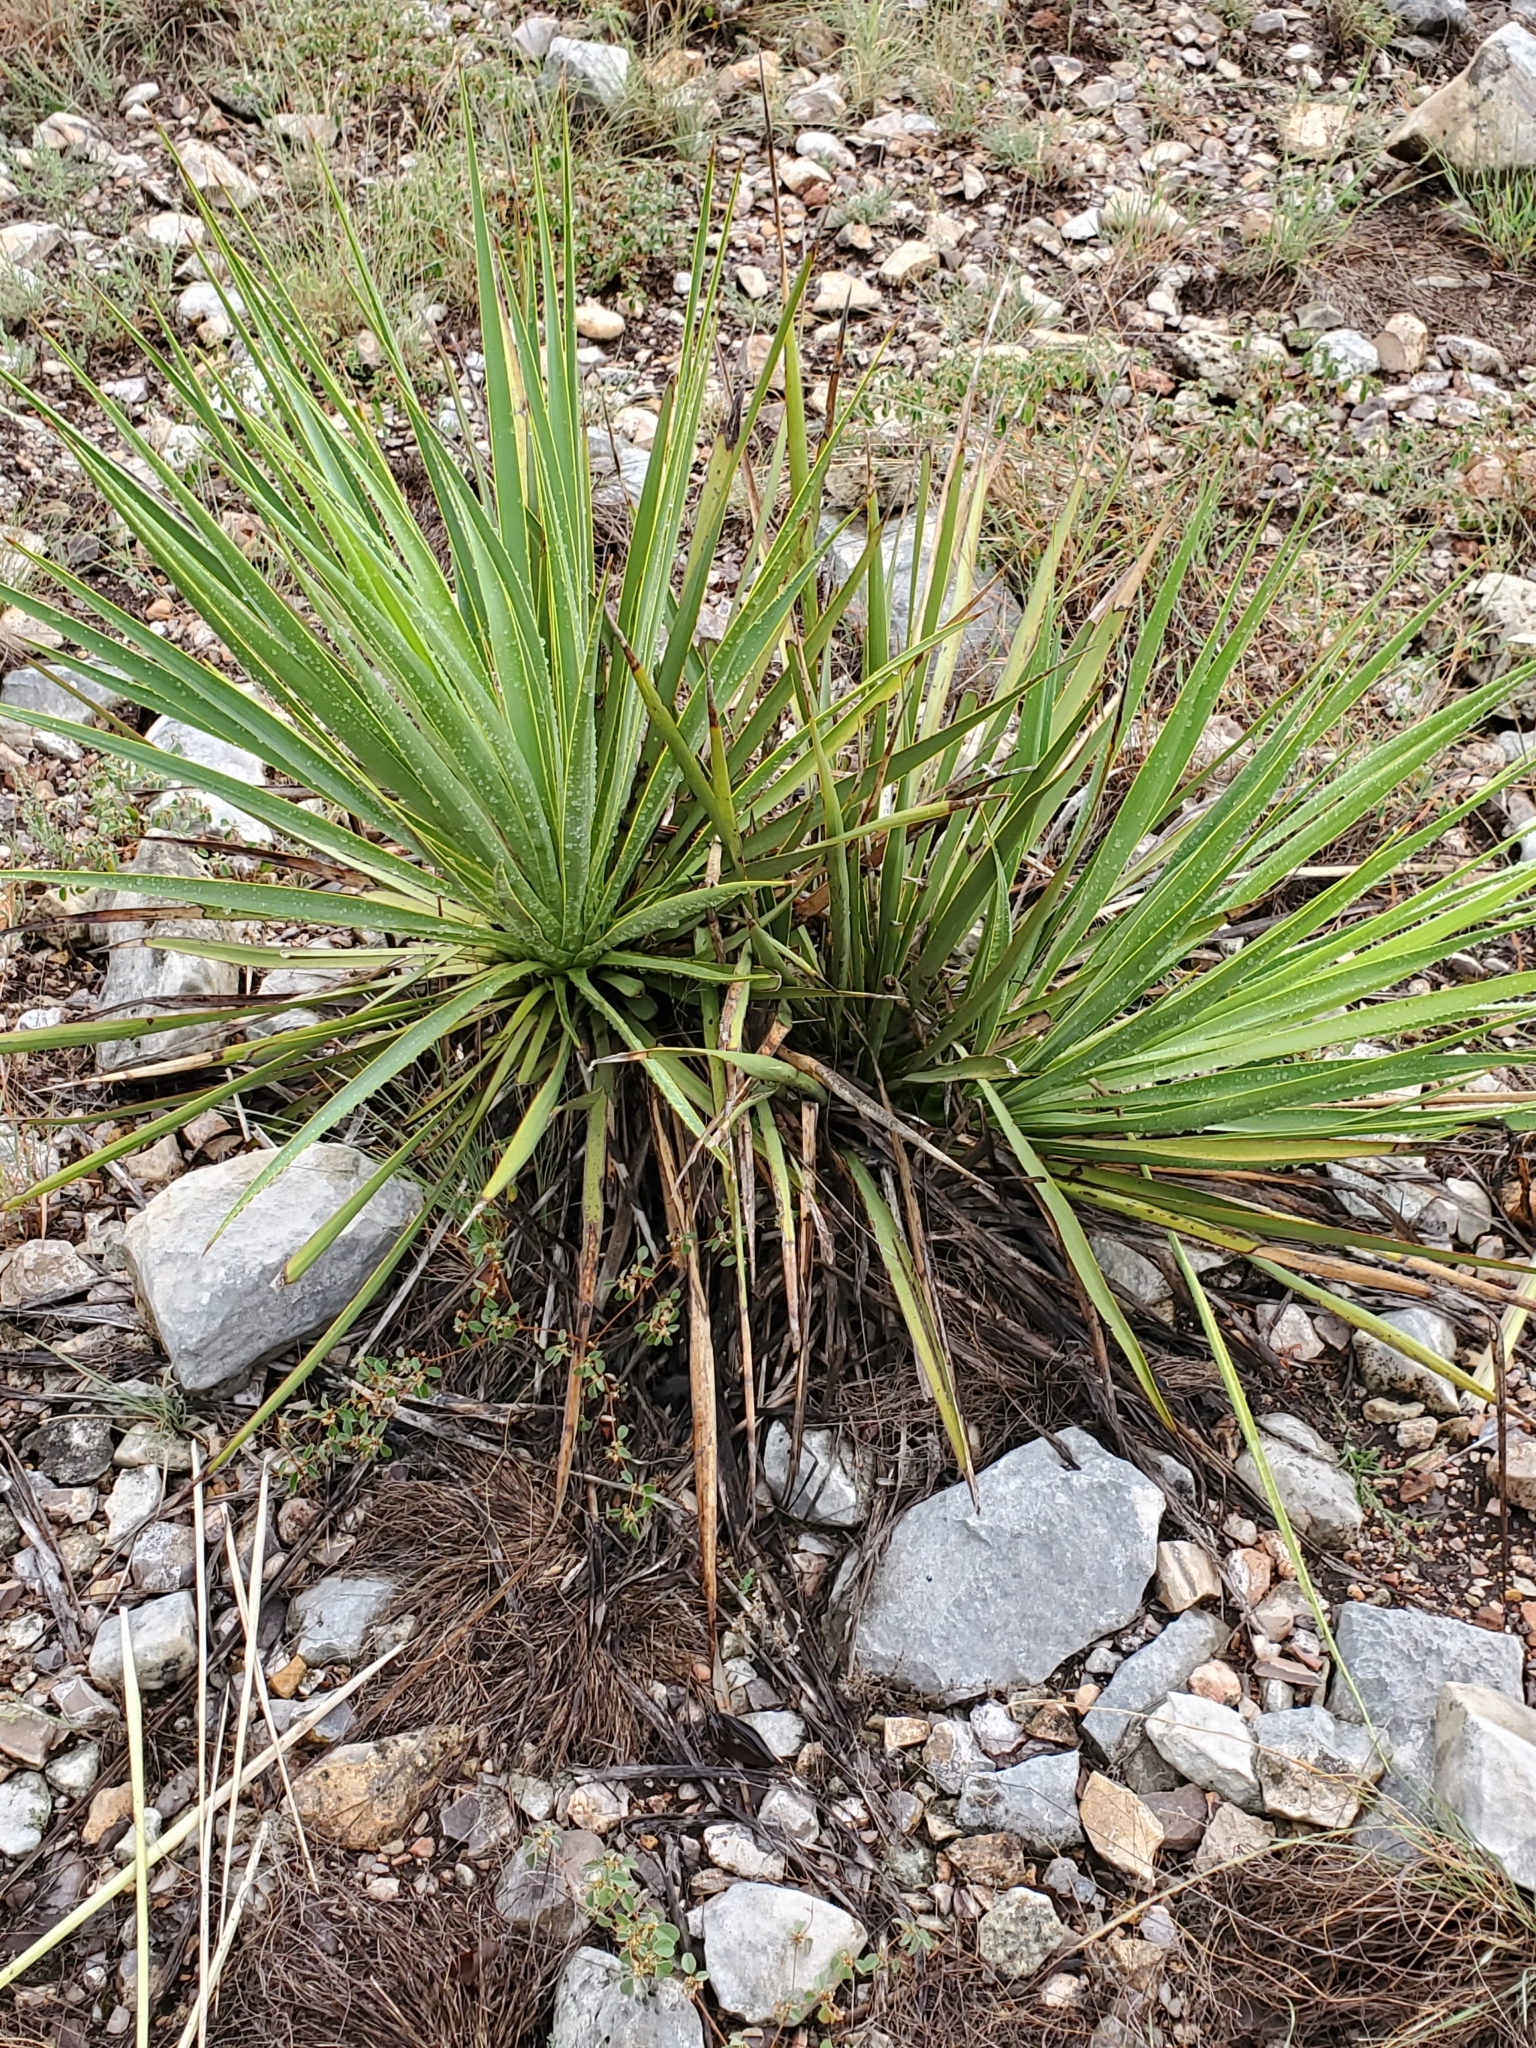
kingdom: Plantae
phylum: Tracheophyta
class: Liliopsida
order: Asparagales
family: Asparagaceae
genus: Yucca
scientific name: Yucca reverchonii
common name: San angelo yucca
